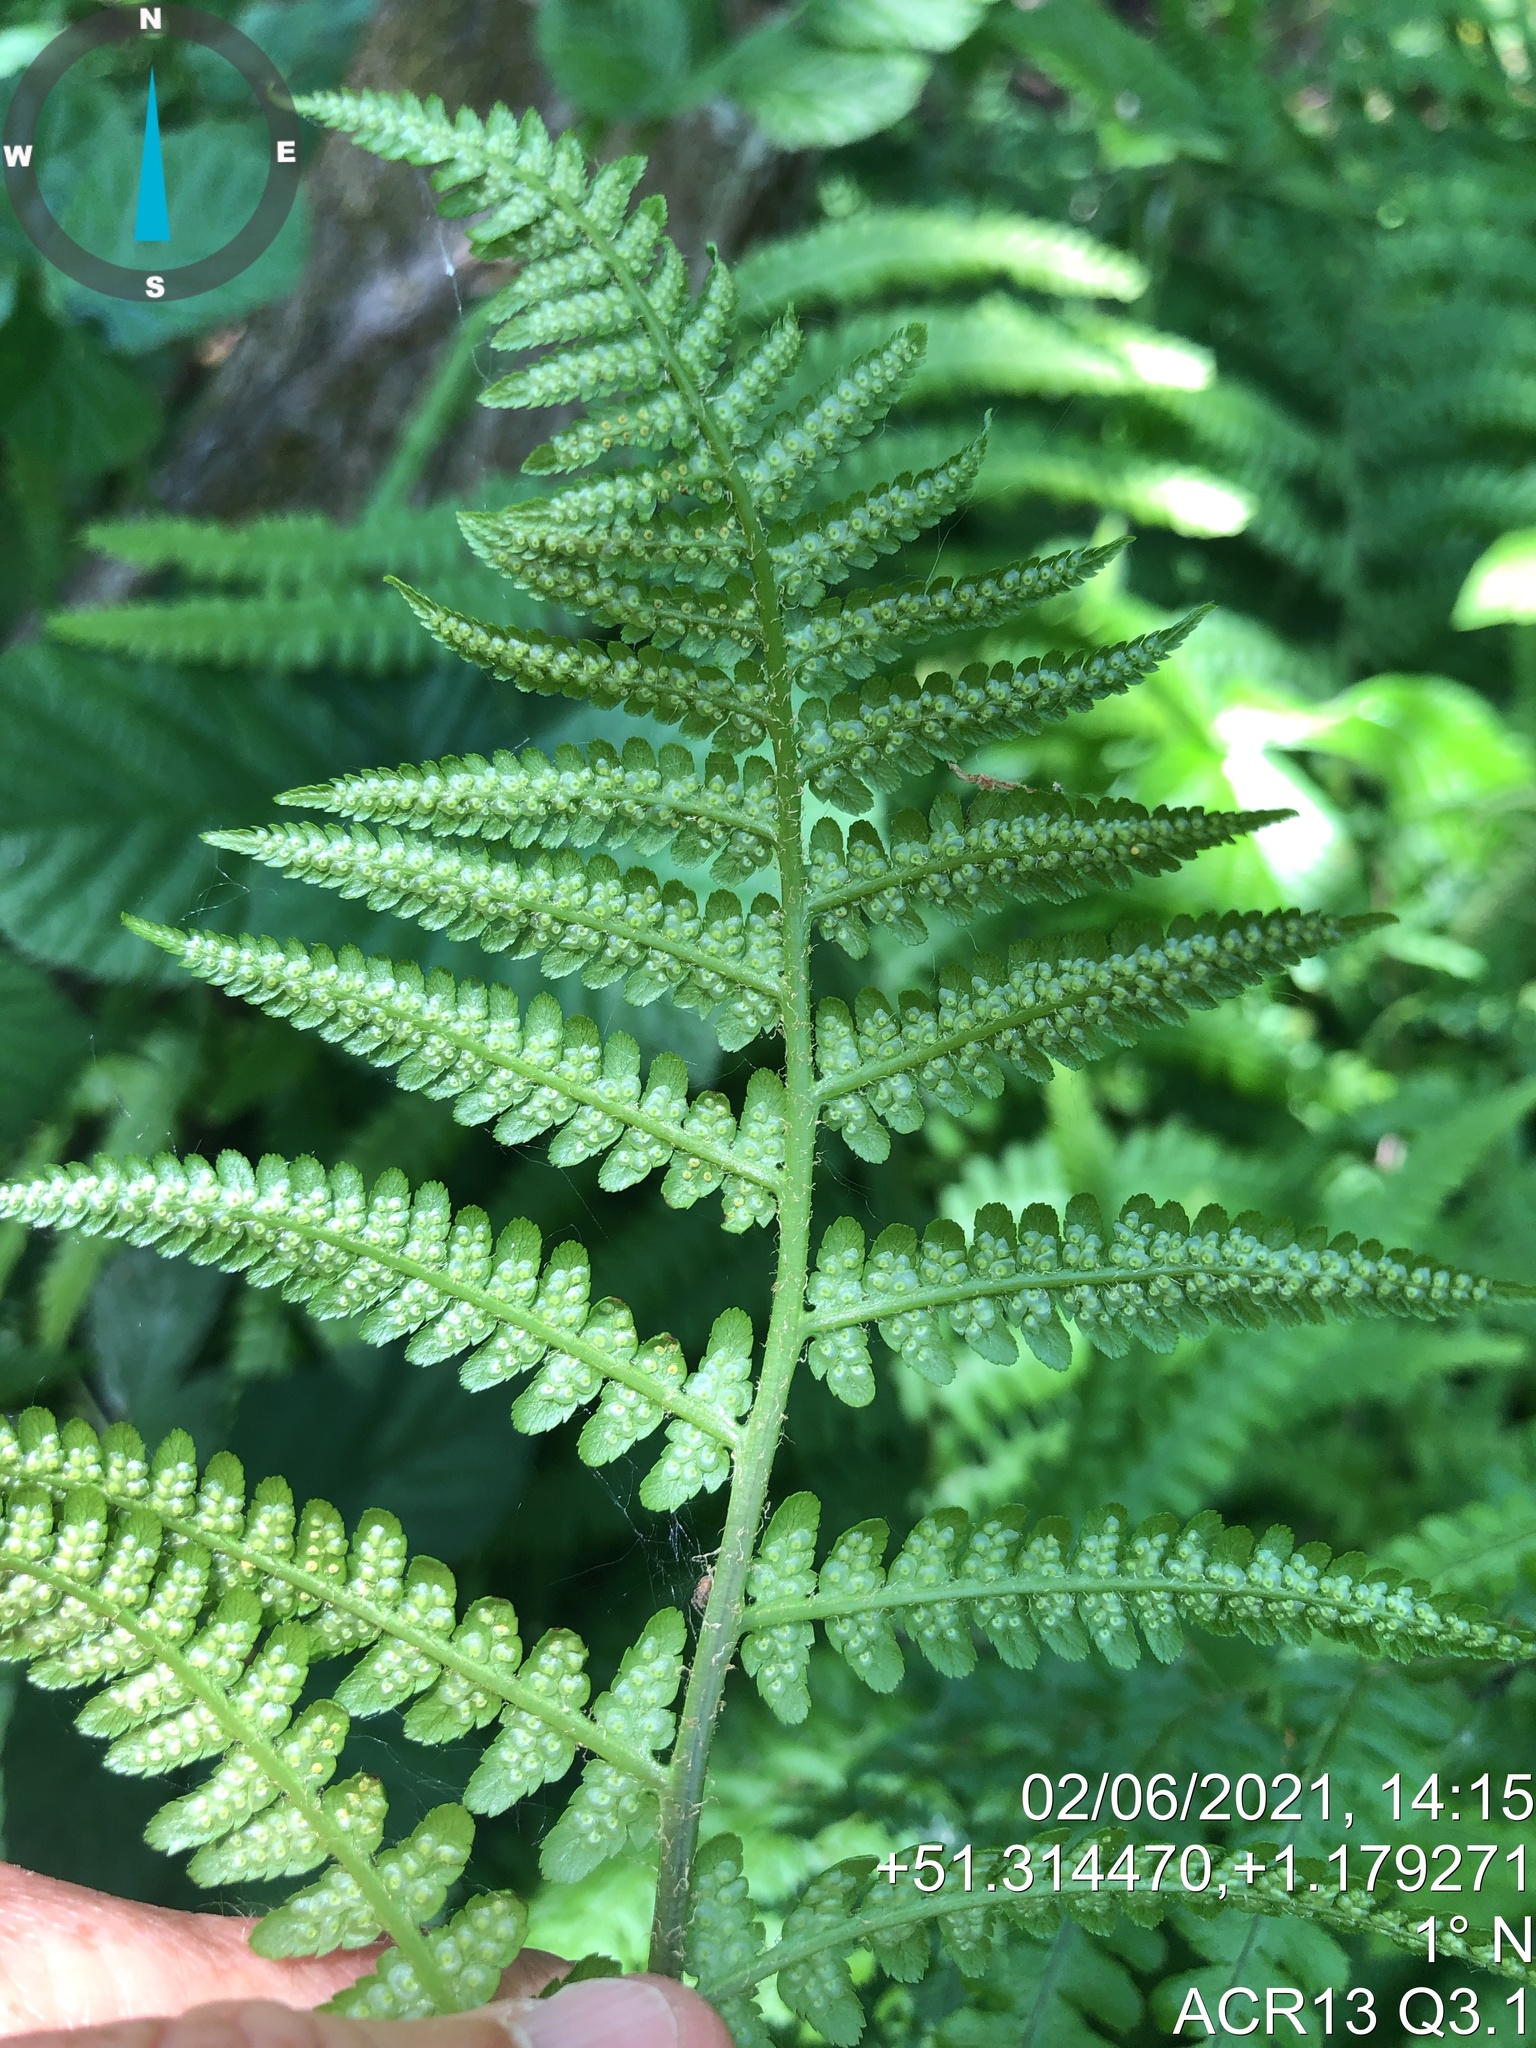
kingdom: Plantae
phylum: Tracheophyta
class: Polypodiopsida
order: Polypodiales
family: Dryopteridaceae
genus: Dryopteris
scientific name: Dryopteris filix-mas
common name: Male fern
